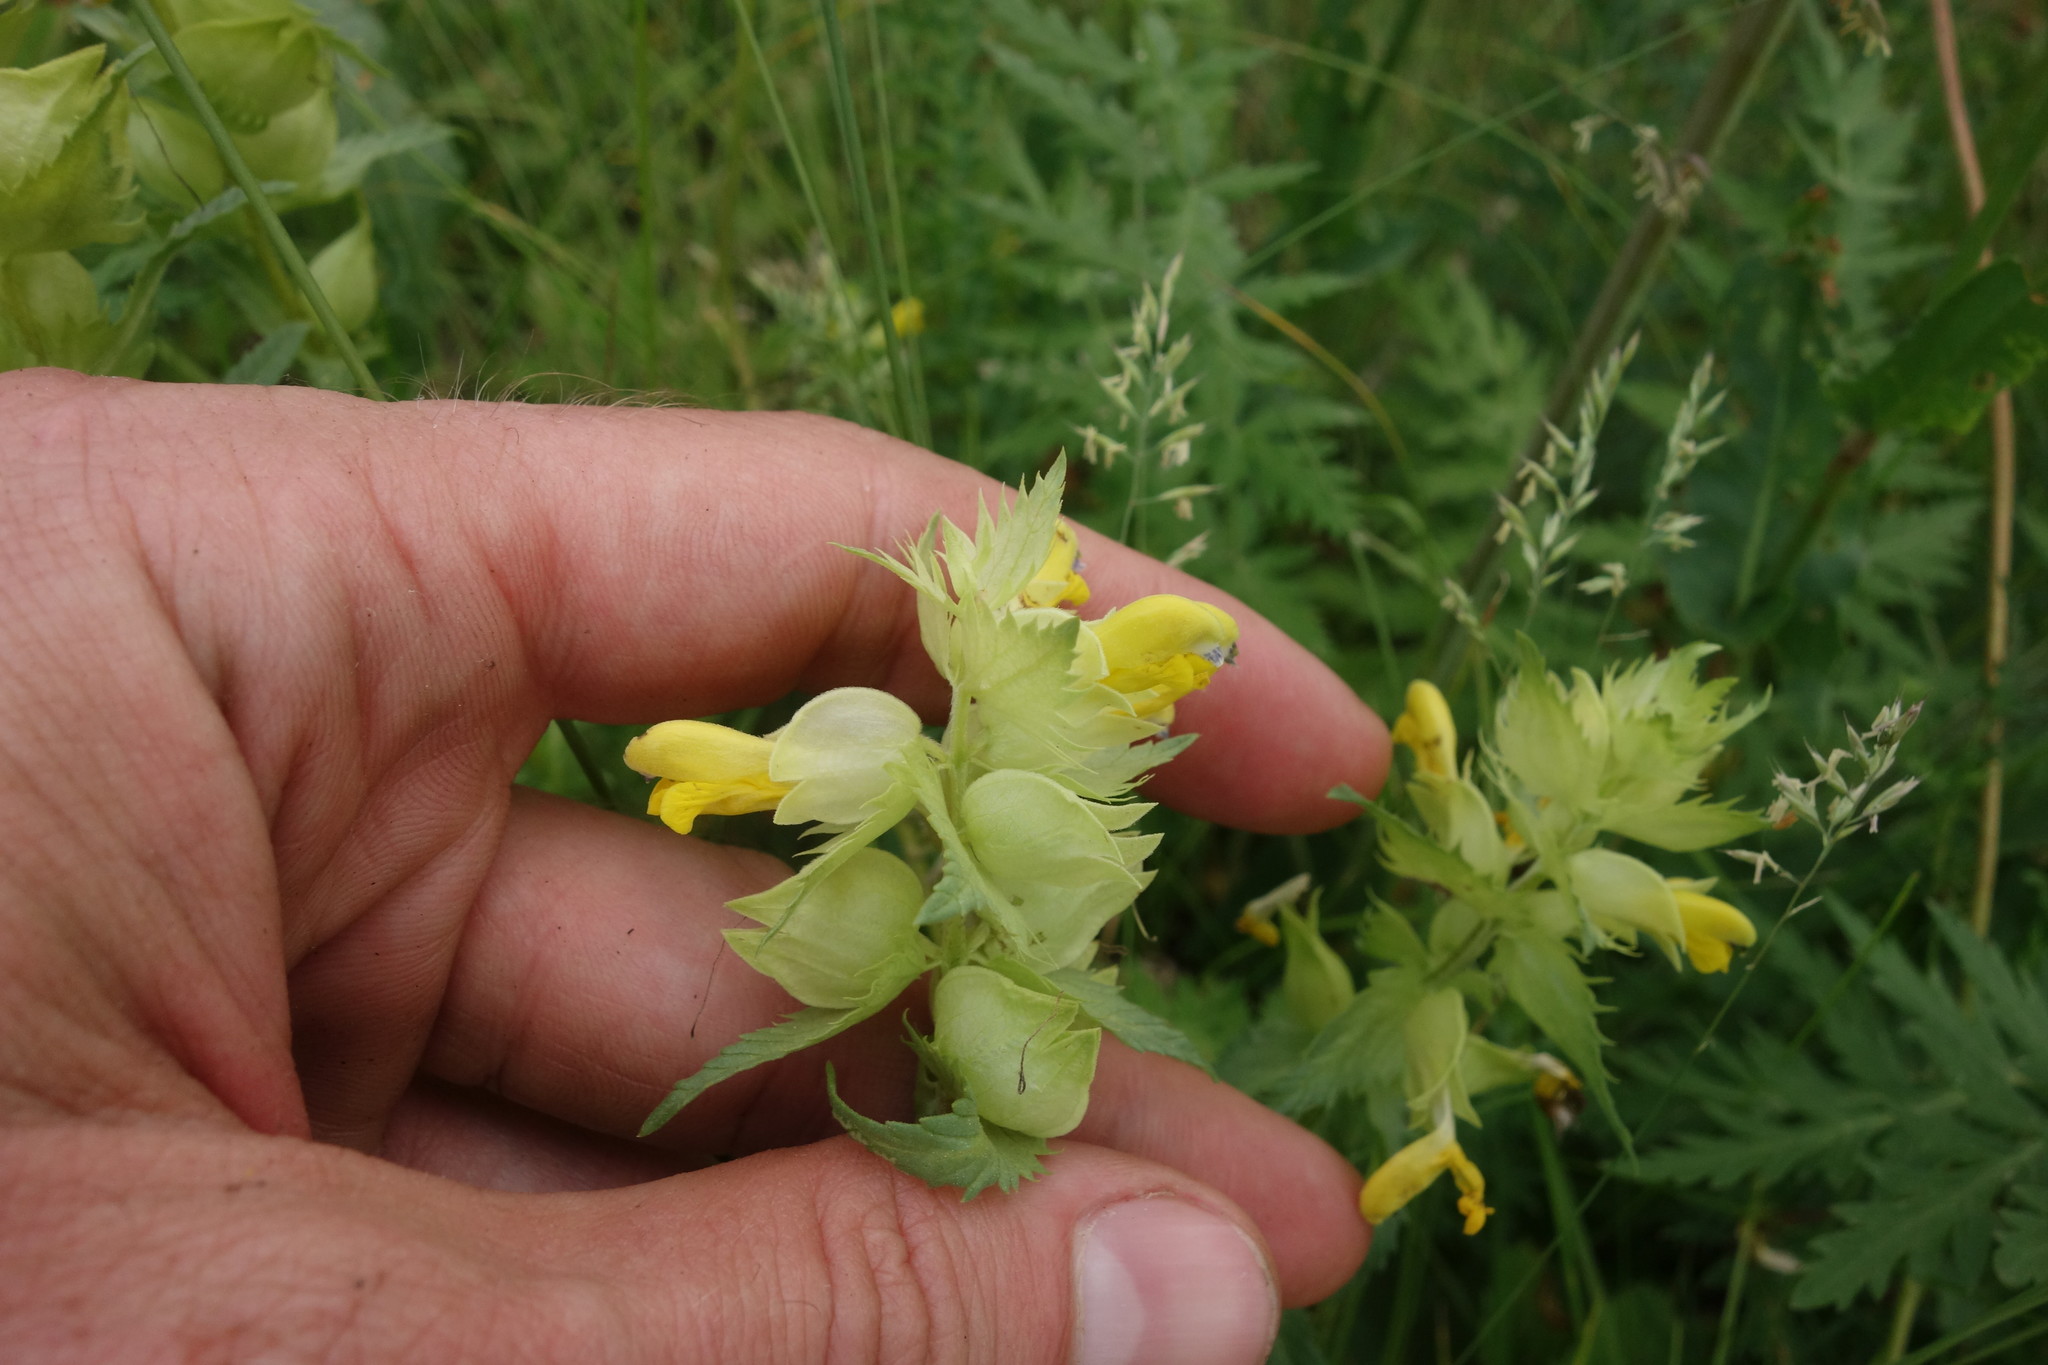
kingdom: Plantae
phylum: Tracheophyta
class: Magnoliopsida
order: Lamiales
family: Orobanchaceae
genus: Rhinanthus
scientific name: Rhinanthus serotinus
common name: Late-flowering yellow rattle
